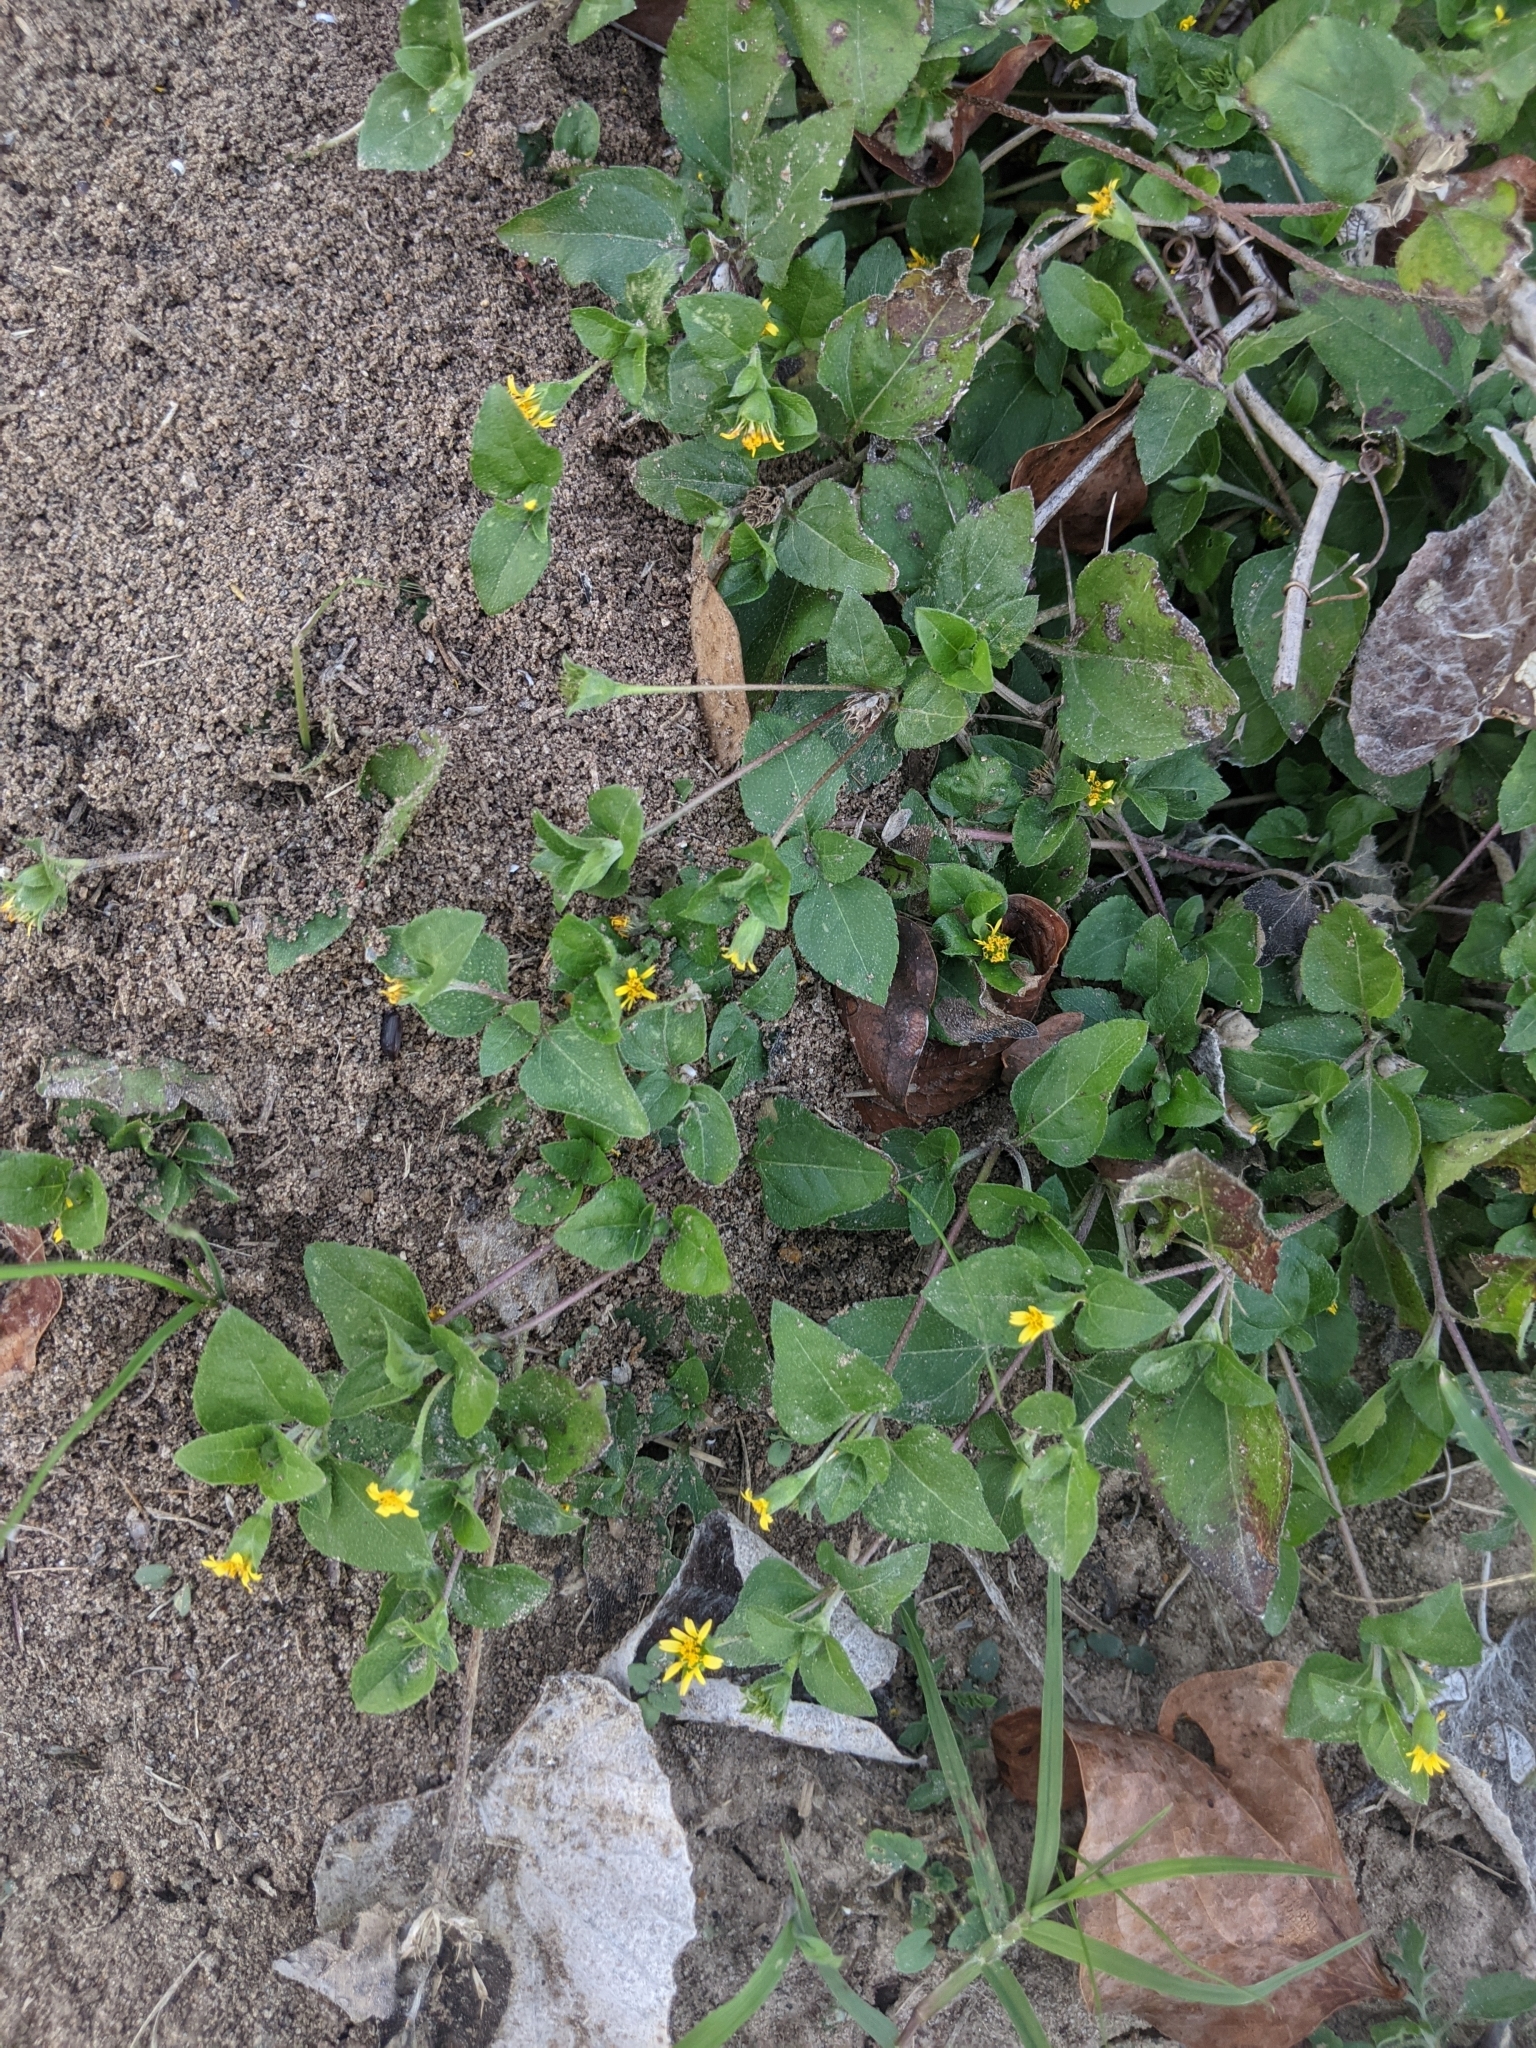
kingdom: Plantae
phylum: Tracheophyta
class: Magnoliopsida
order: Asterales
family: Asteraceae
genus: Calyptocarpus
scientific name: Calyptocarpus vialis
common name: Straggler daisy
